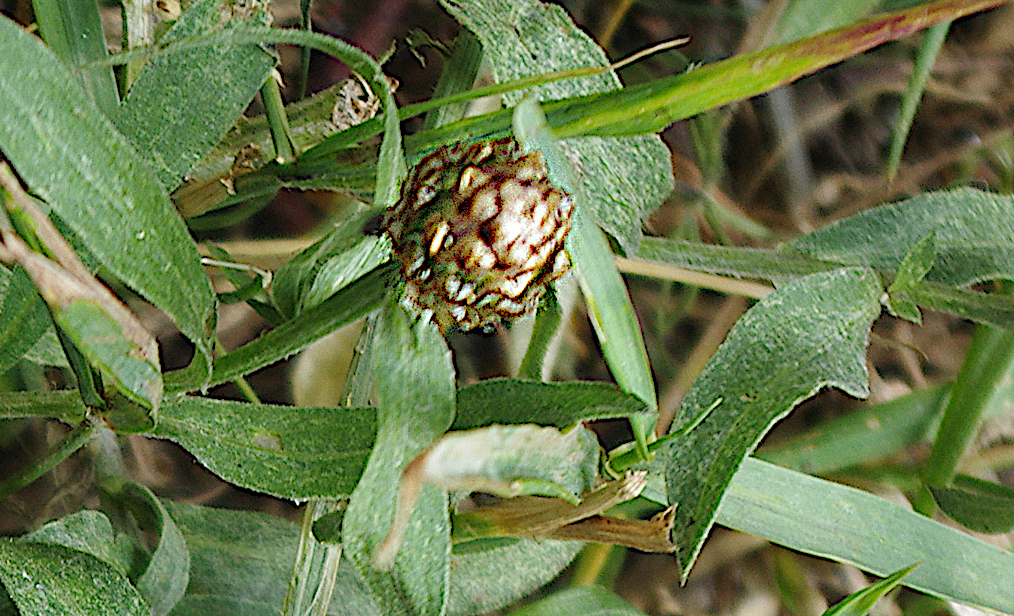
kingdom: Plantae
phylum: Tracheophyta
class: Magnoliopsida
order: Asterales
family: Asteraceae
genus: Centaurea
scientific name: Centaurea jacea
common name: Brown knapweed
